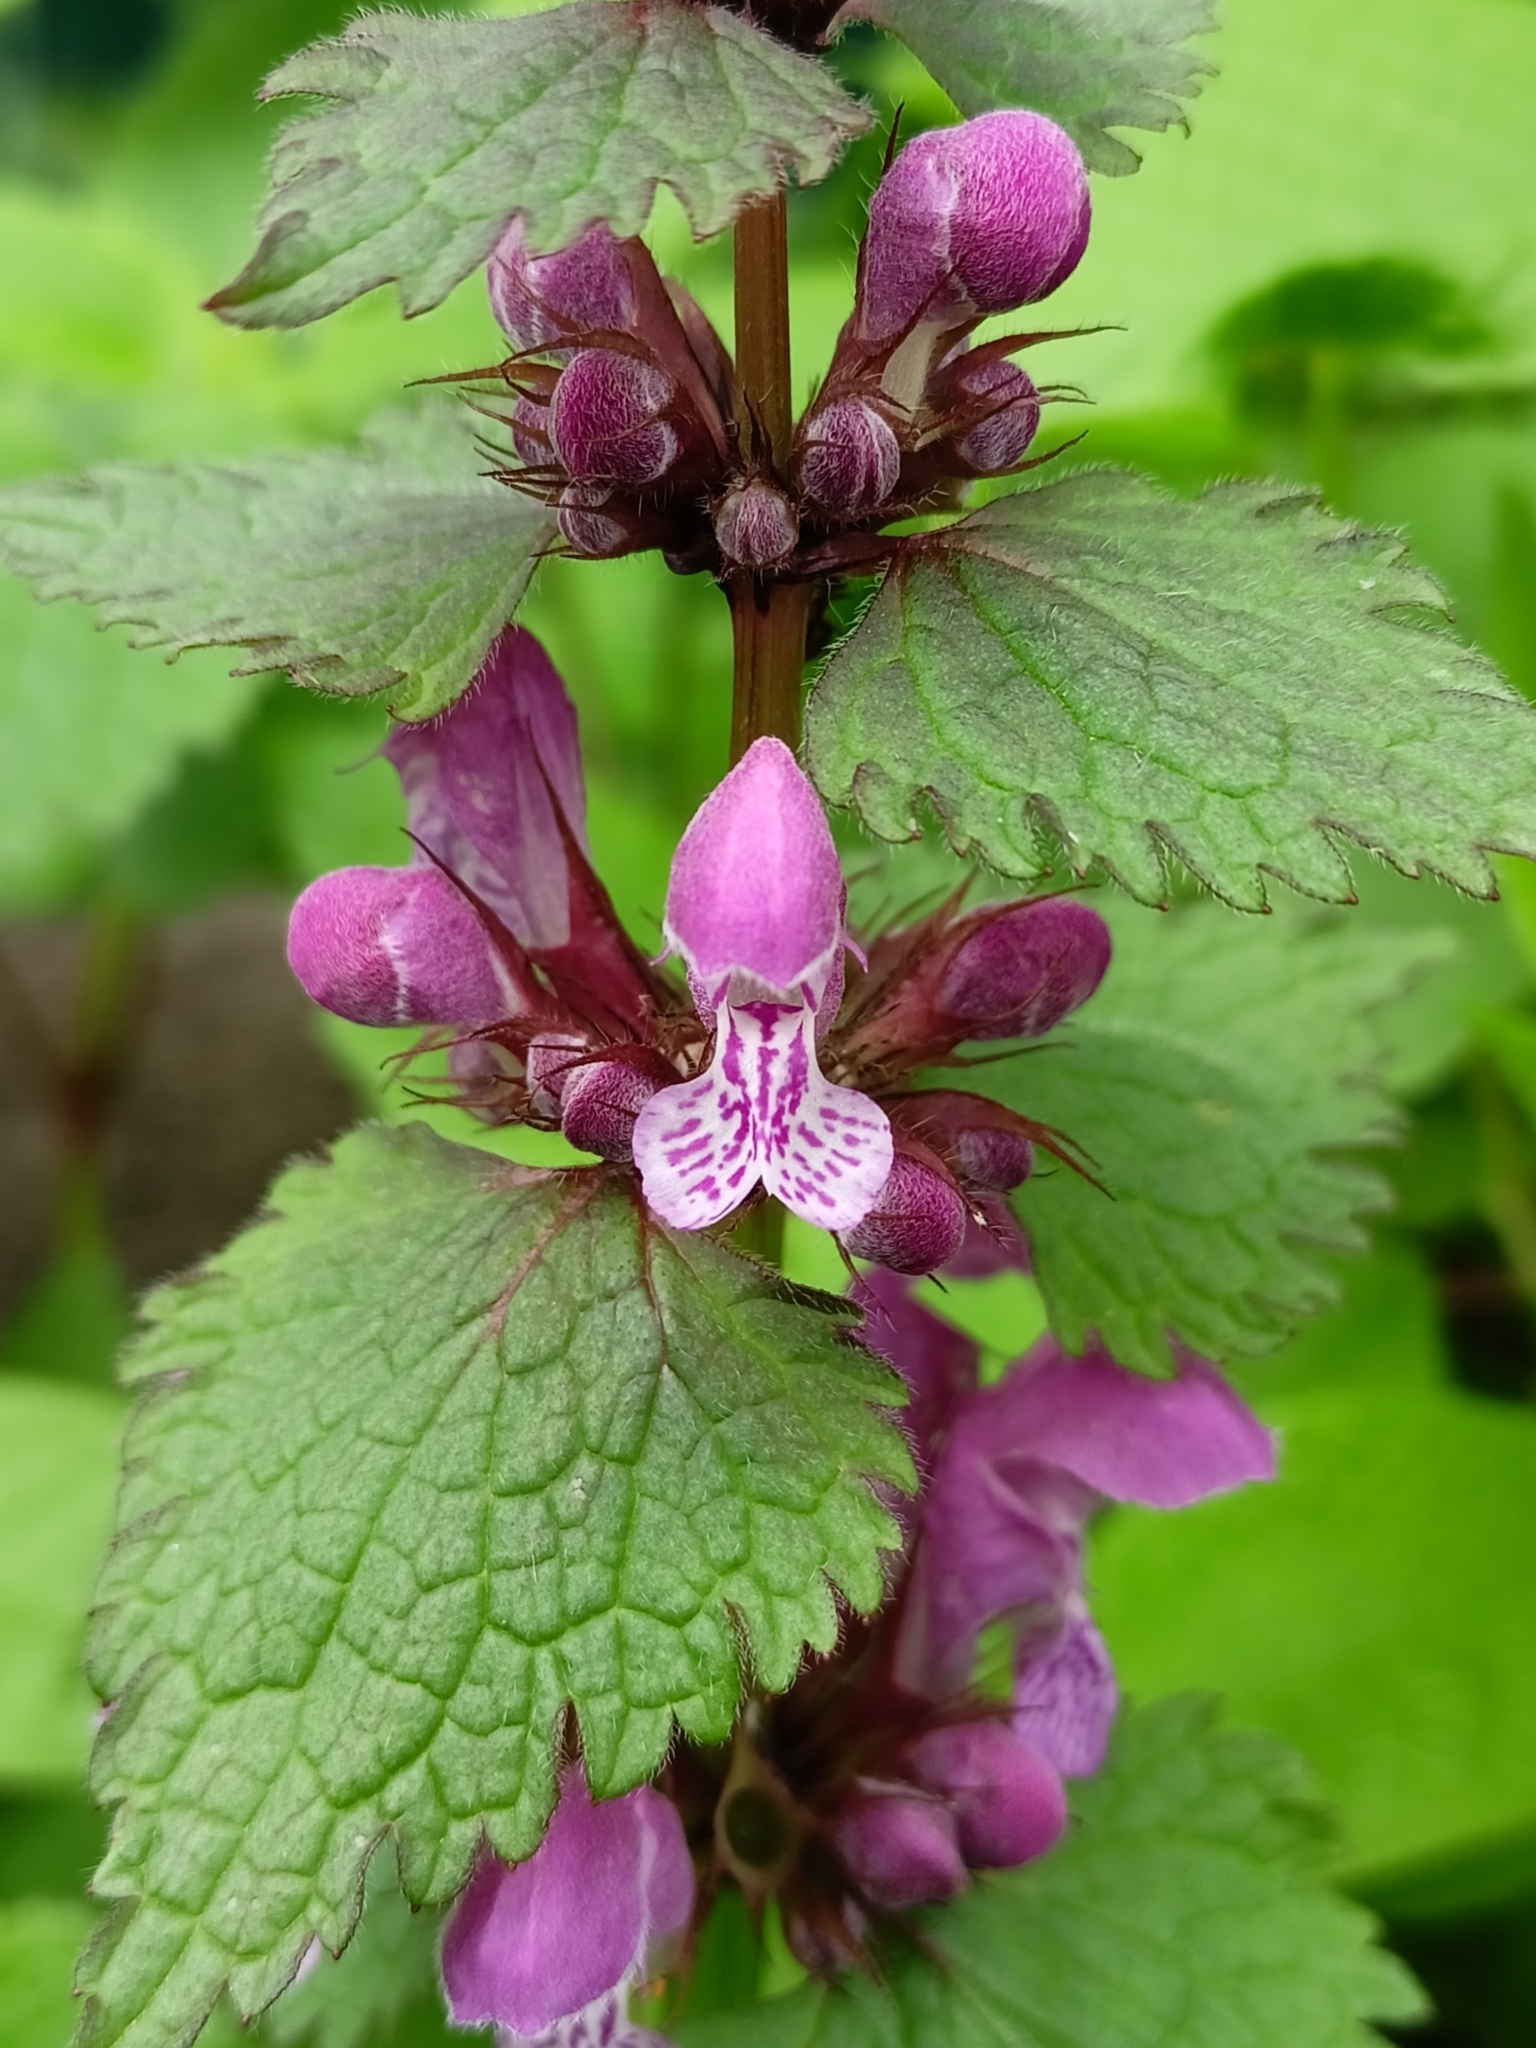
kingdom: Plantae
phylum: Tracheophyta
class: Magnoliopsida
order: Lamiales
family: Lamiaceae
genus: Lamium
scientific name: Lamium maculatum
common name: Spotted dead-nettle
